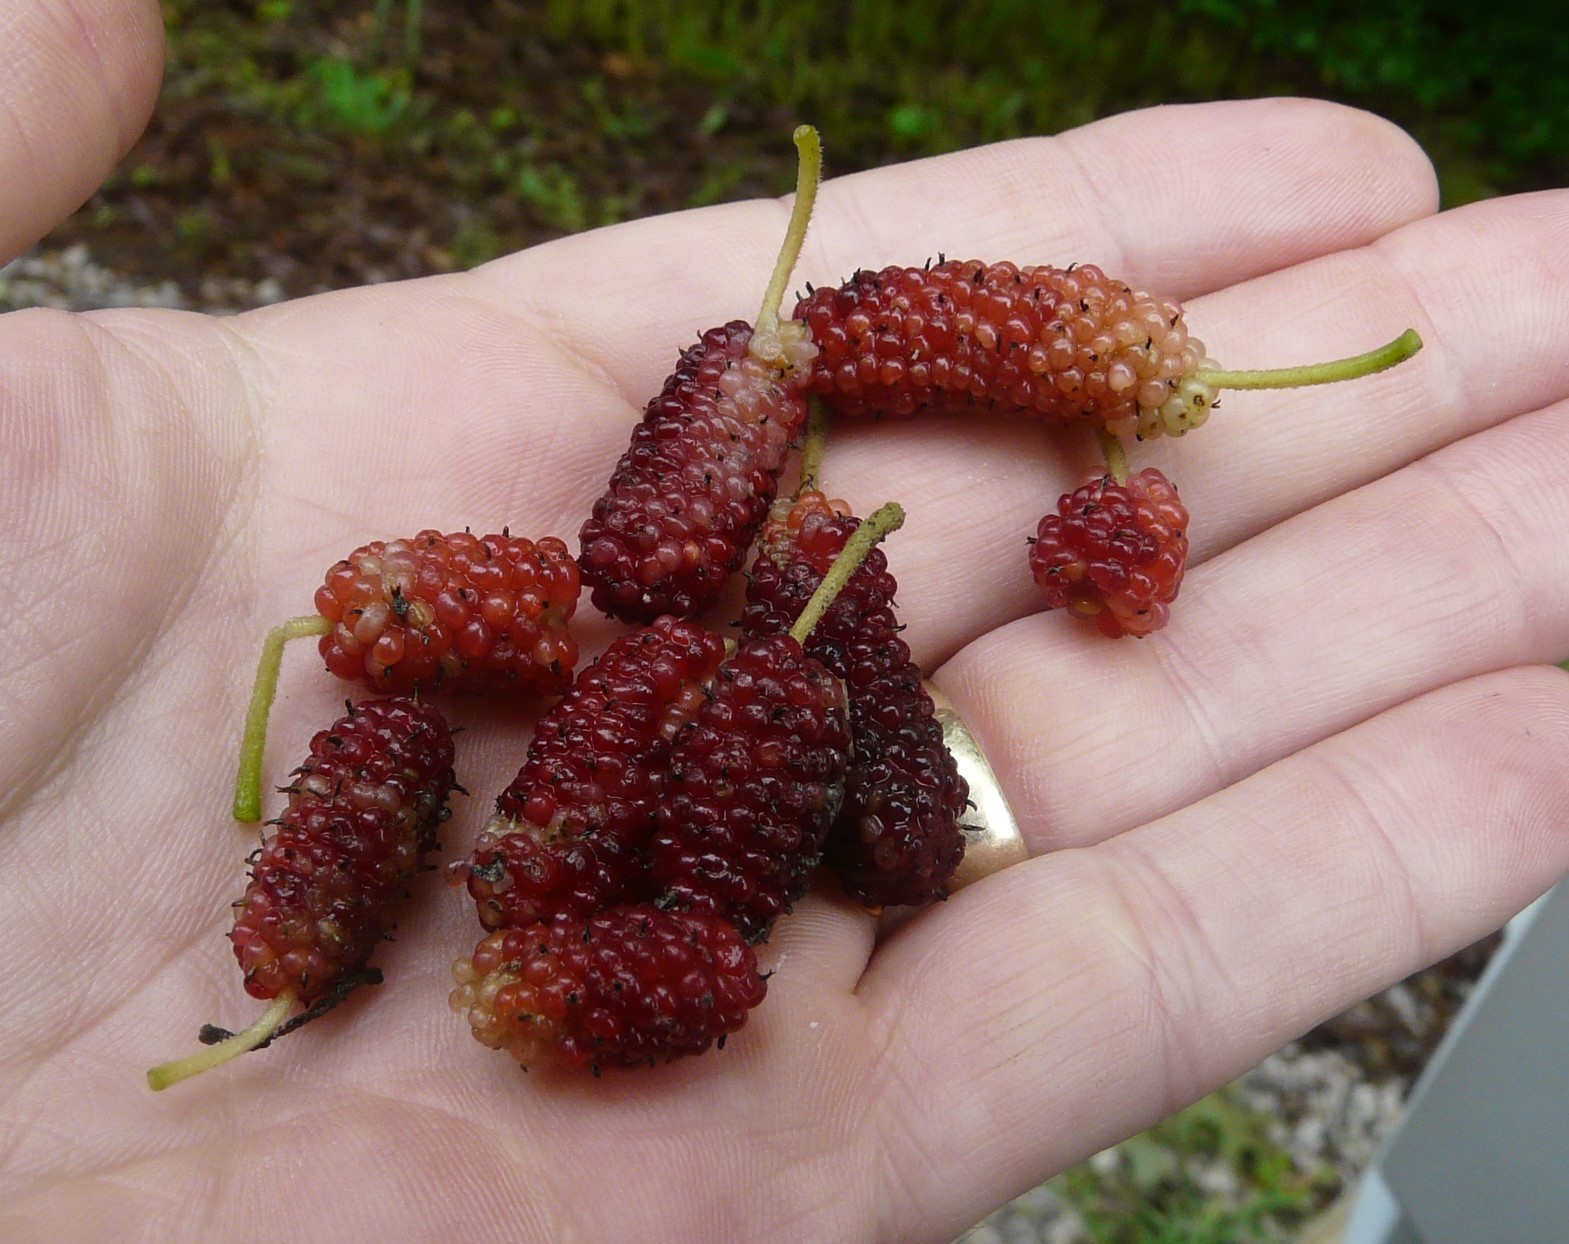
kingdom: Plantae
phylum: Tracheophyta
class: Magnoliopsida
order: Rosales
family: Moraceae
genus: Morus
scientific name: Morus rubra
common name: Red mulberry
